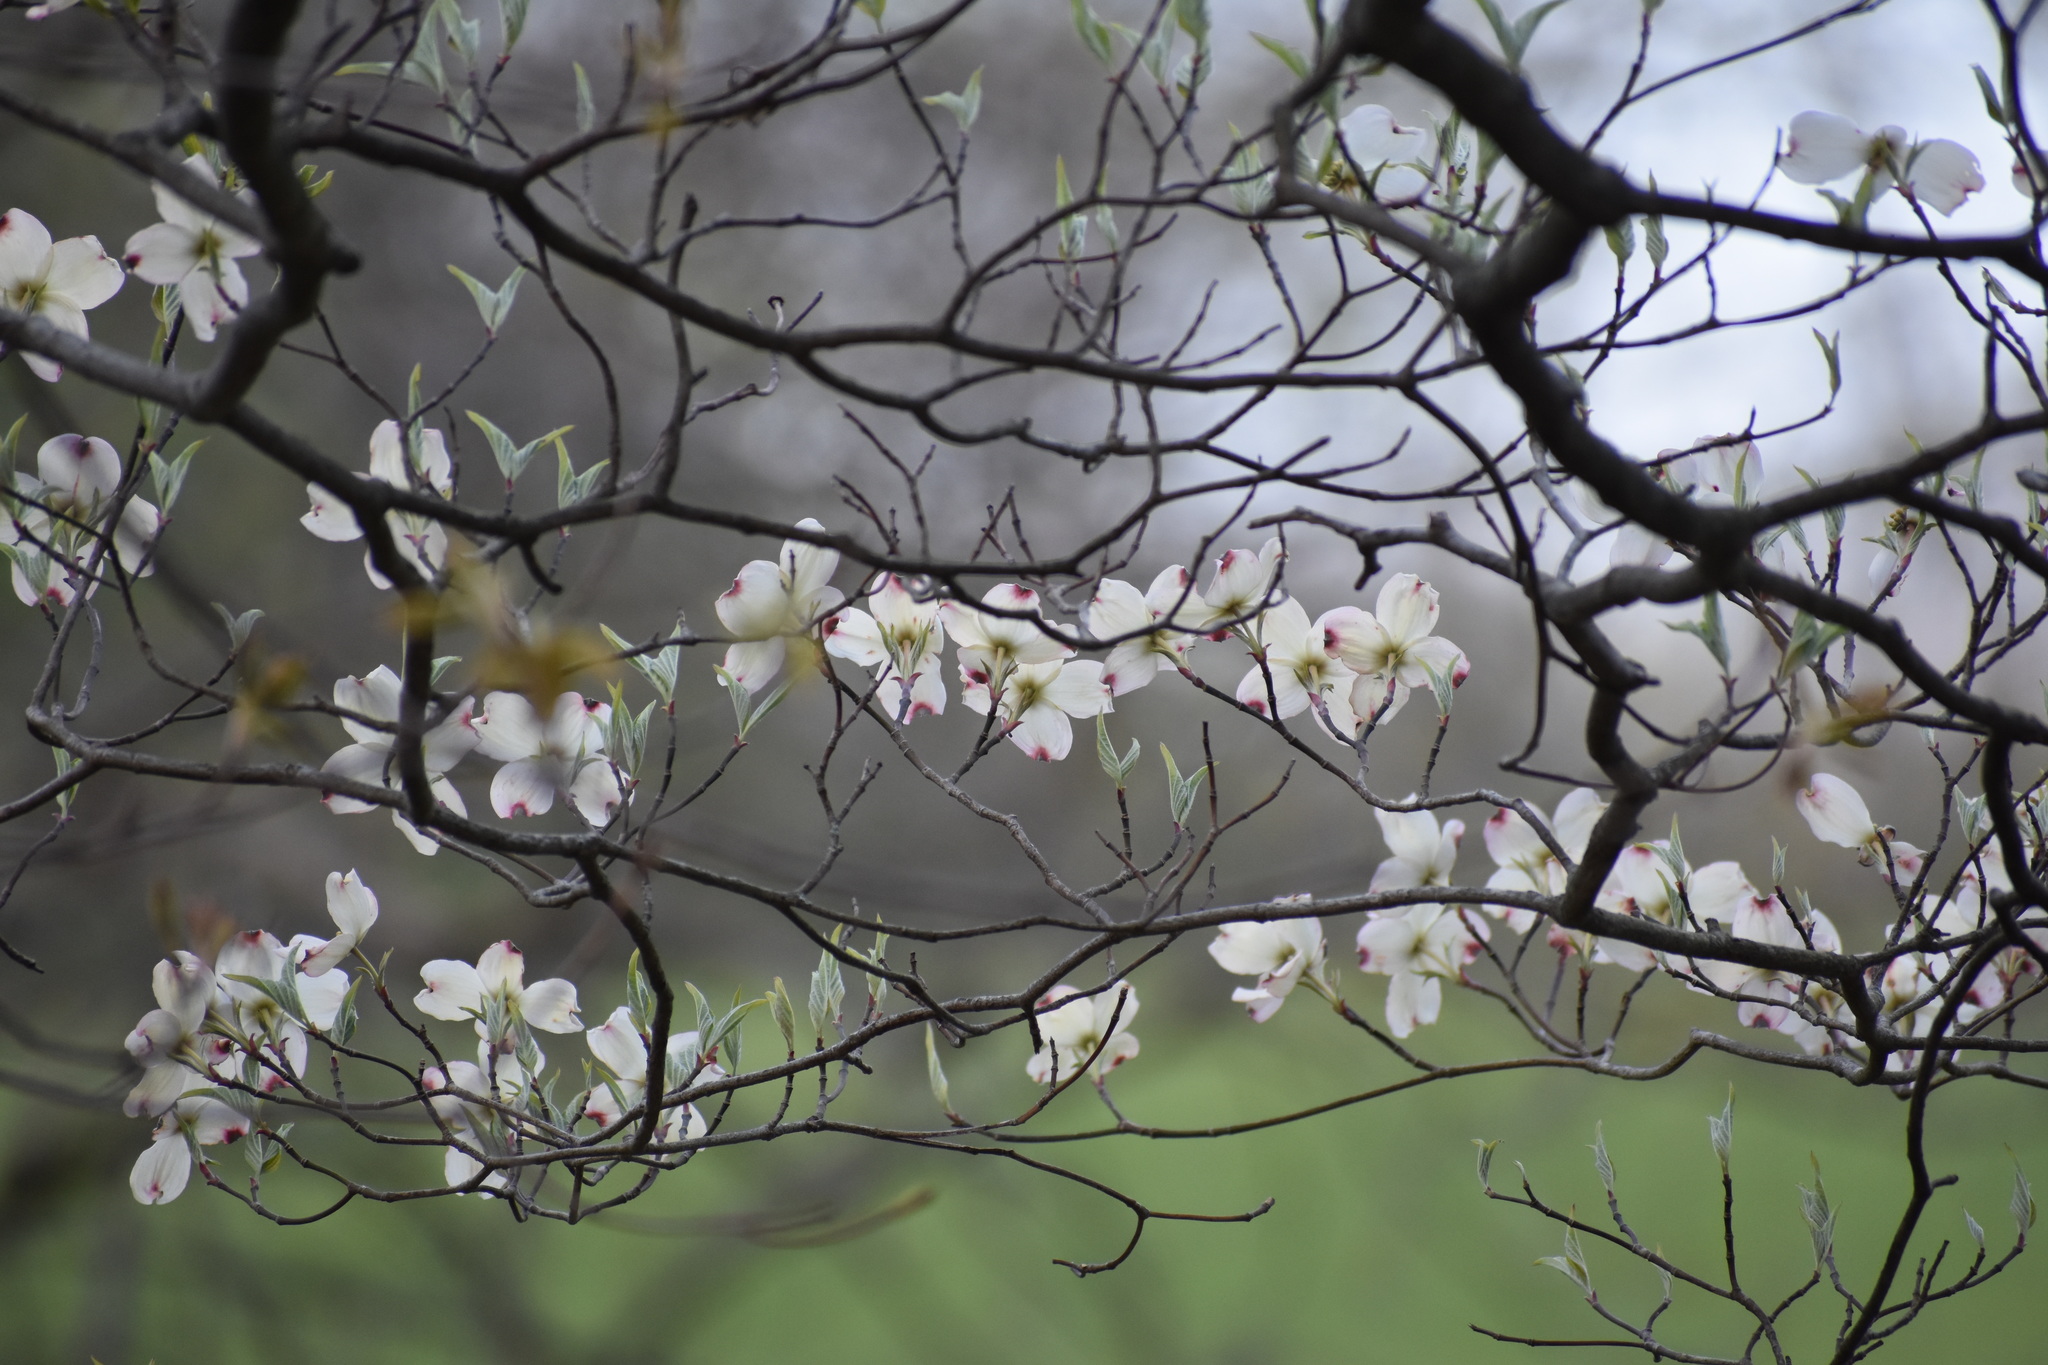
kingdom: Plantae
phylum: Tracheophyta
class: Magnoliopsida
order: Cornales
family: Cornaceae
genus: Cornus
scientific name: Cornus florida
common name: Flowering dogwood
